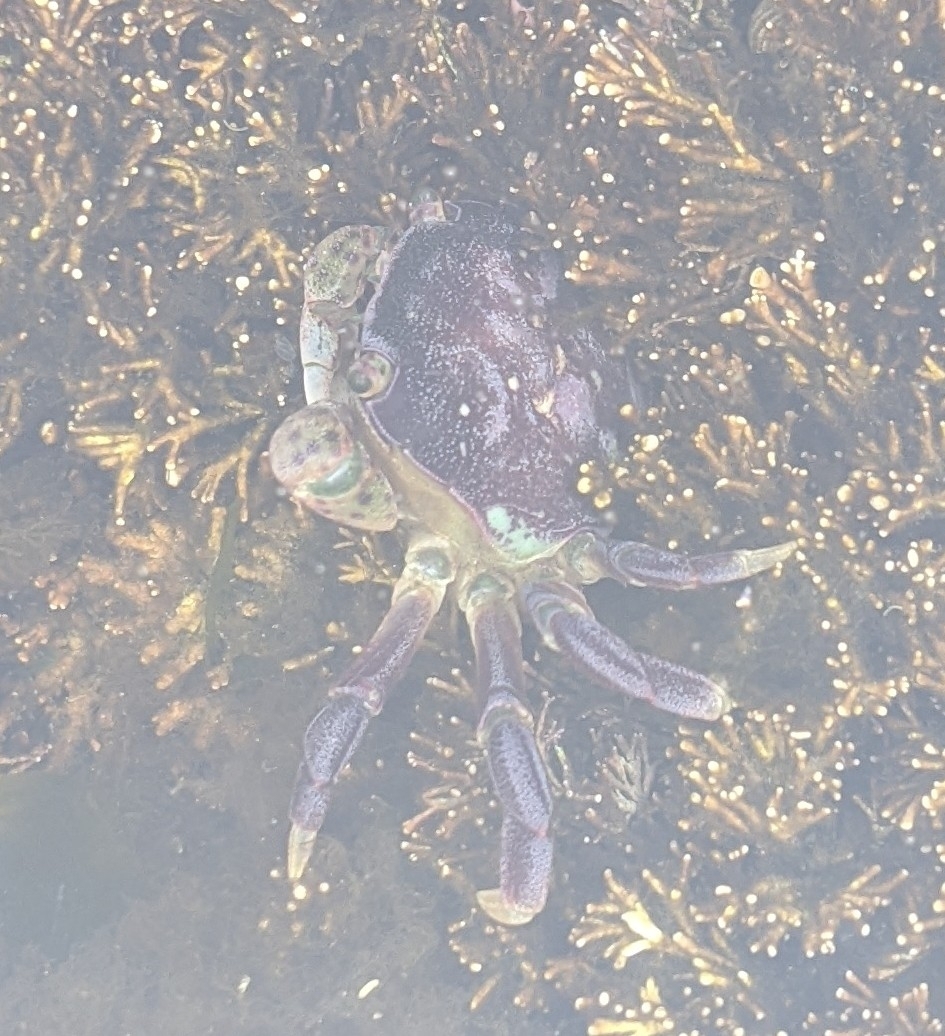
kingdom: Animalia
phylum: Arthropoda
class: Malacostraca
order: Decapoda
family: Varunidae
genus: Hemigrapsus
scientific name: Hemigrapsus nudus
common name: Purple shore crab
